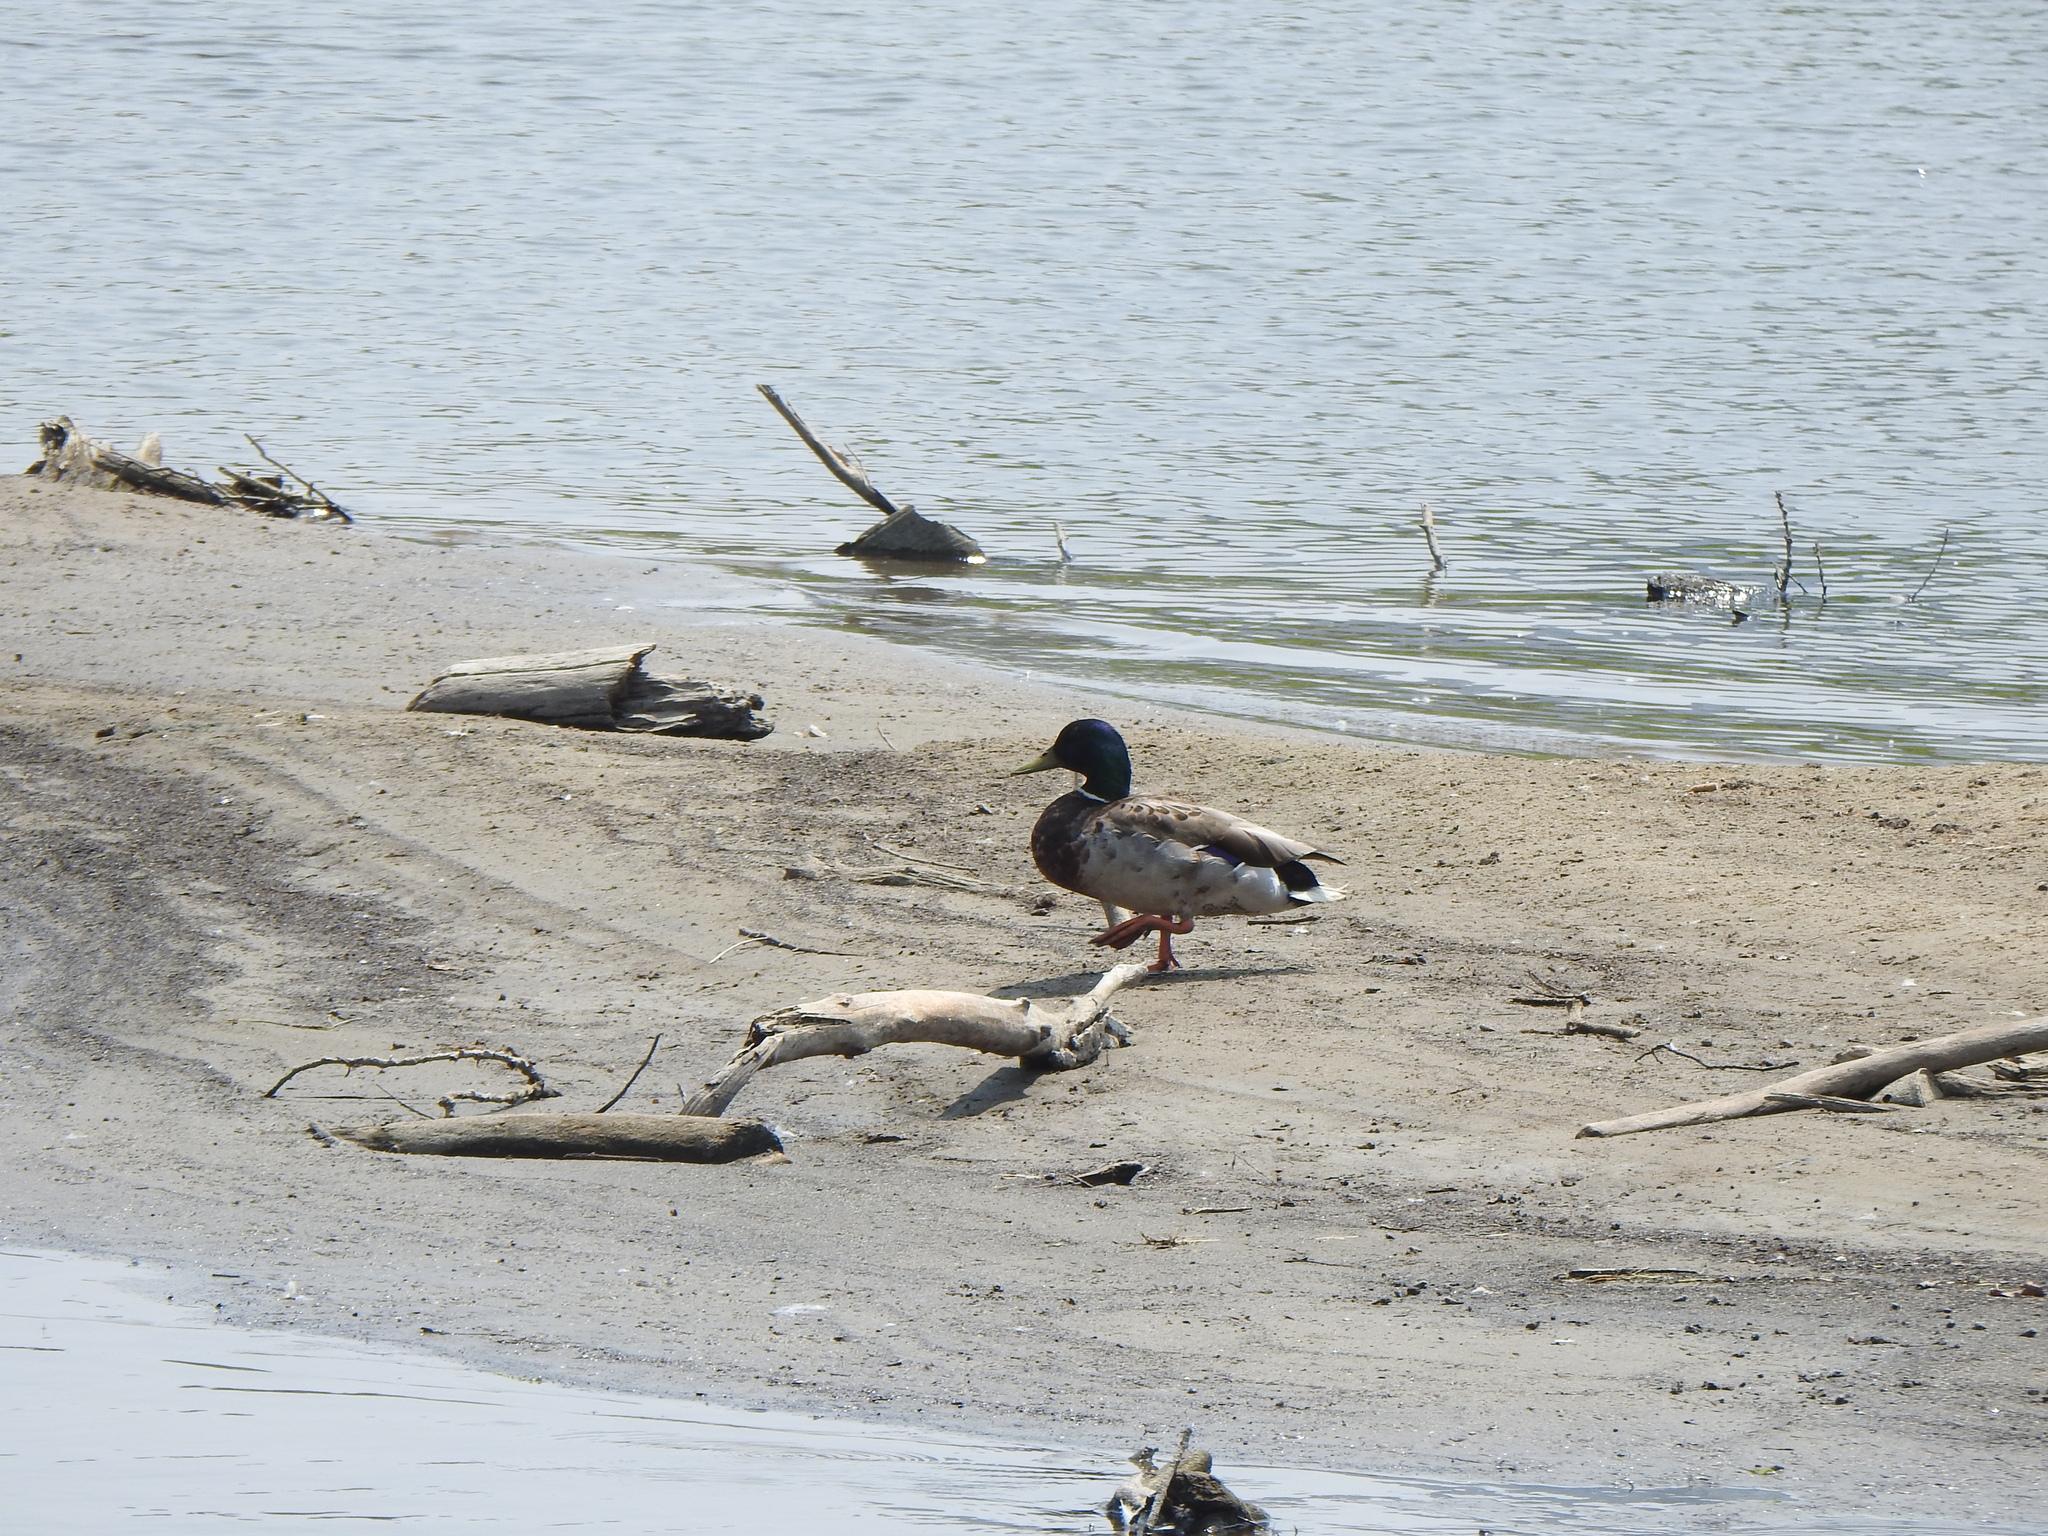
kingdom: Animalia
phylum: Chordata
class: Aves
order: Anseriformes
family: Anatidae
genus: Anas
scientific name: Anas platyrhynchos
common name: Mallard
